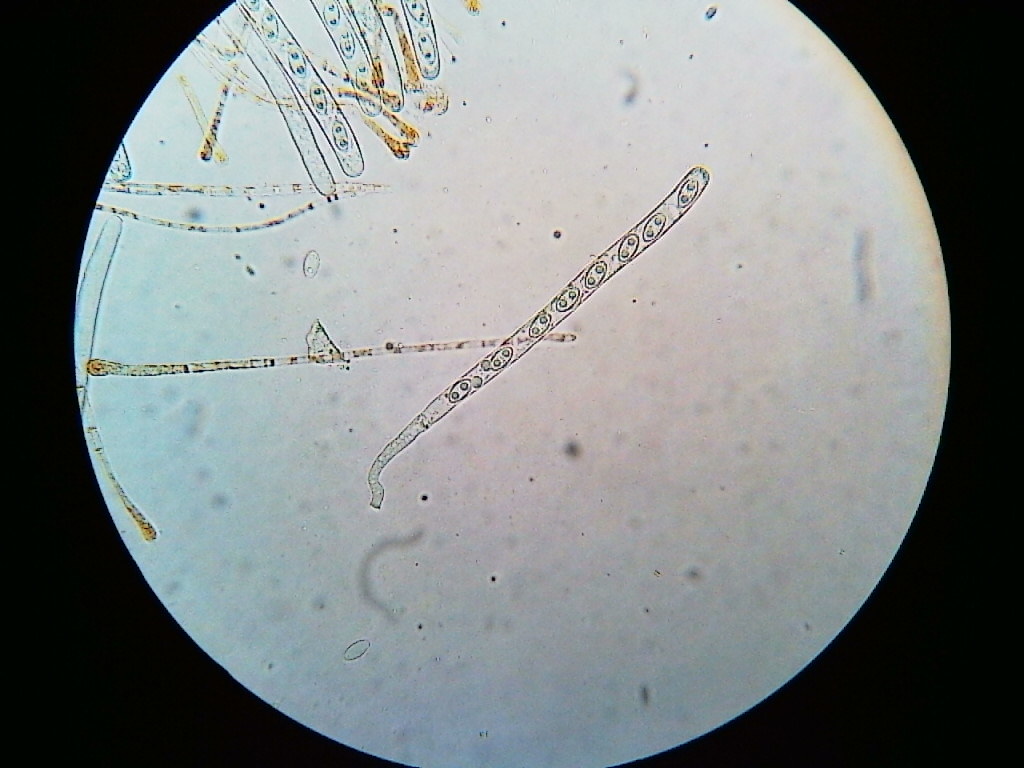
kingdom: Fungi
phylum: Ascomycota
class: Pezizomycetes
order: Pezizales
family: Pyronemataceae
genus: Aleuria
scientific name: Aleuria aurantia
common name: Orange peel fungus
